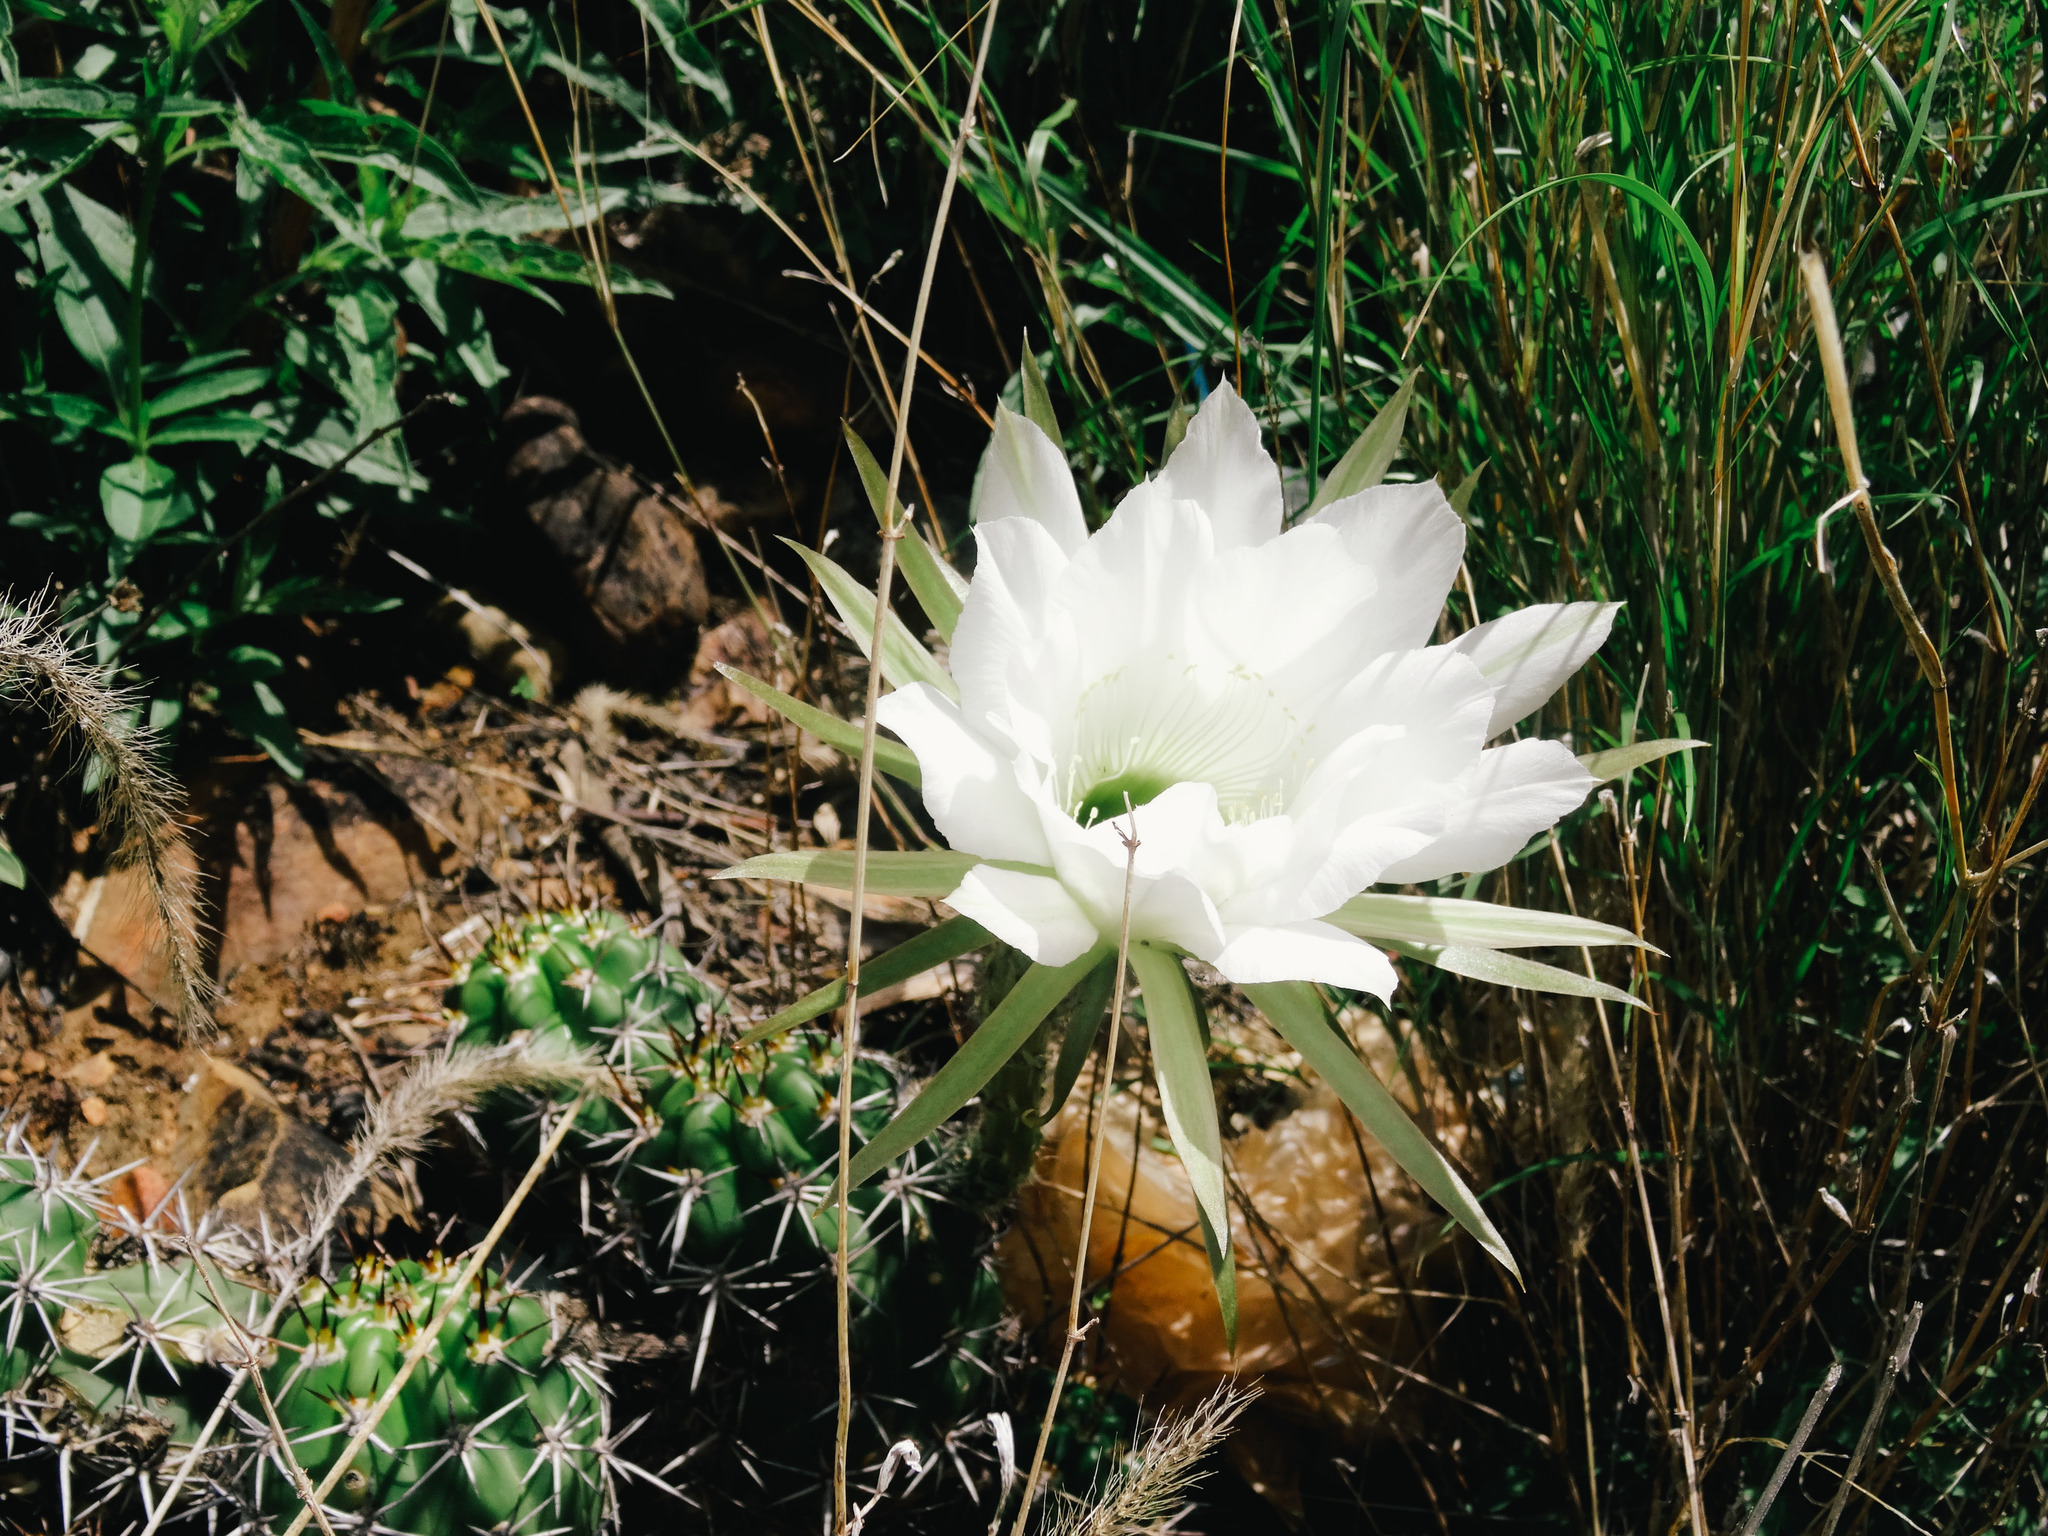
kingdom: Plantae
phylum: Tracheophyta
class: Magnoliopsida
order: Caryophyllales
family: Cactaceae
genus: Lobivia
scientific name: Lobivia bridgesii
